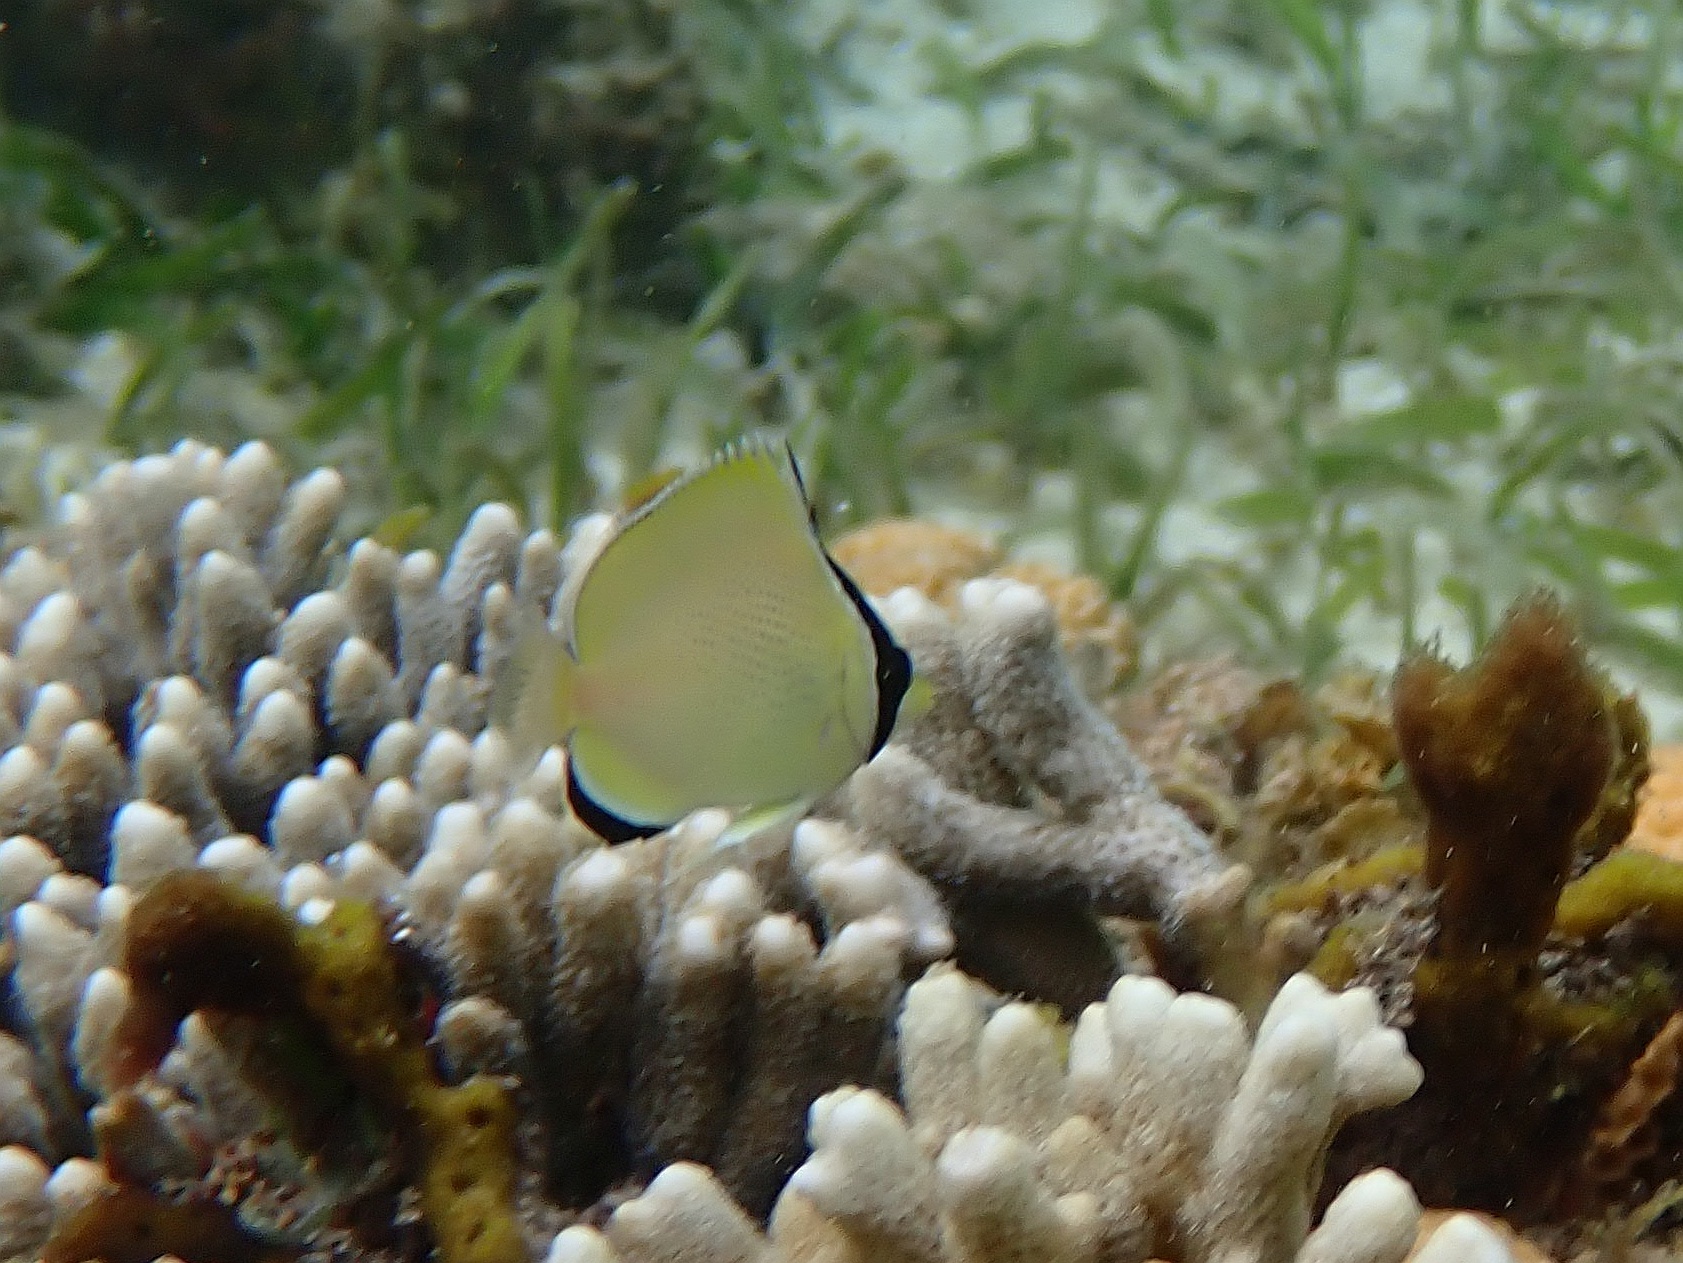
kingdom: Animalia
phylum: Chordata
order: Perciformes
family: Chaetodontidae
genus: Chaetodon
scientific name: Chaetodon citrinellus
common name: Speckled butterflyfish
